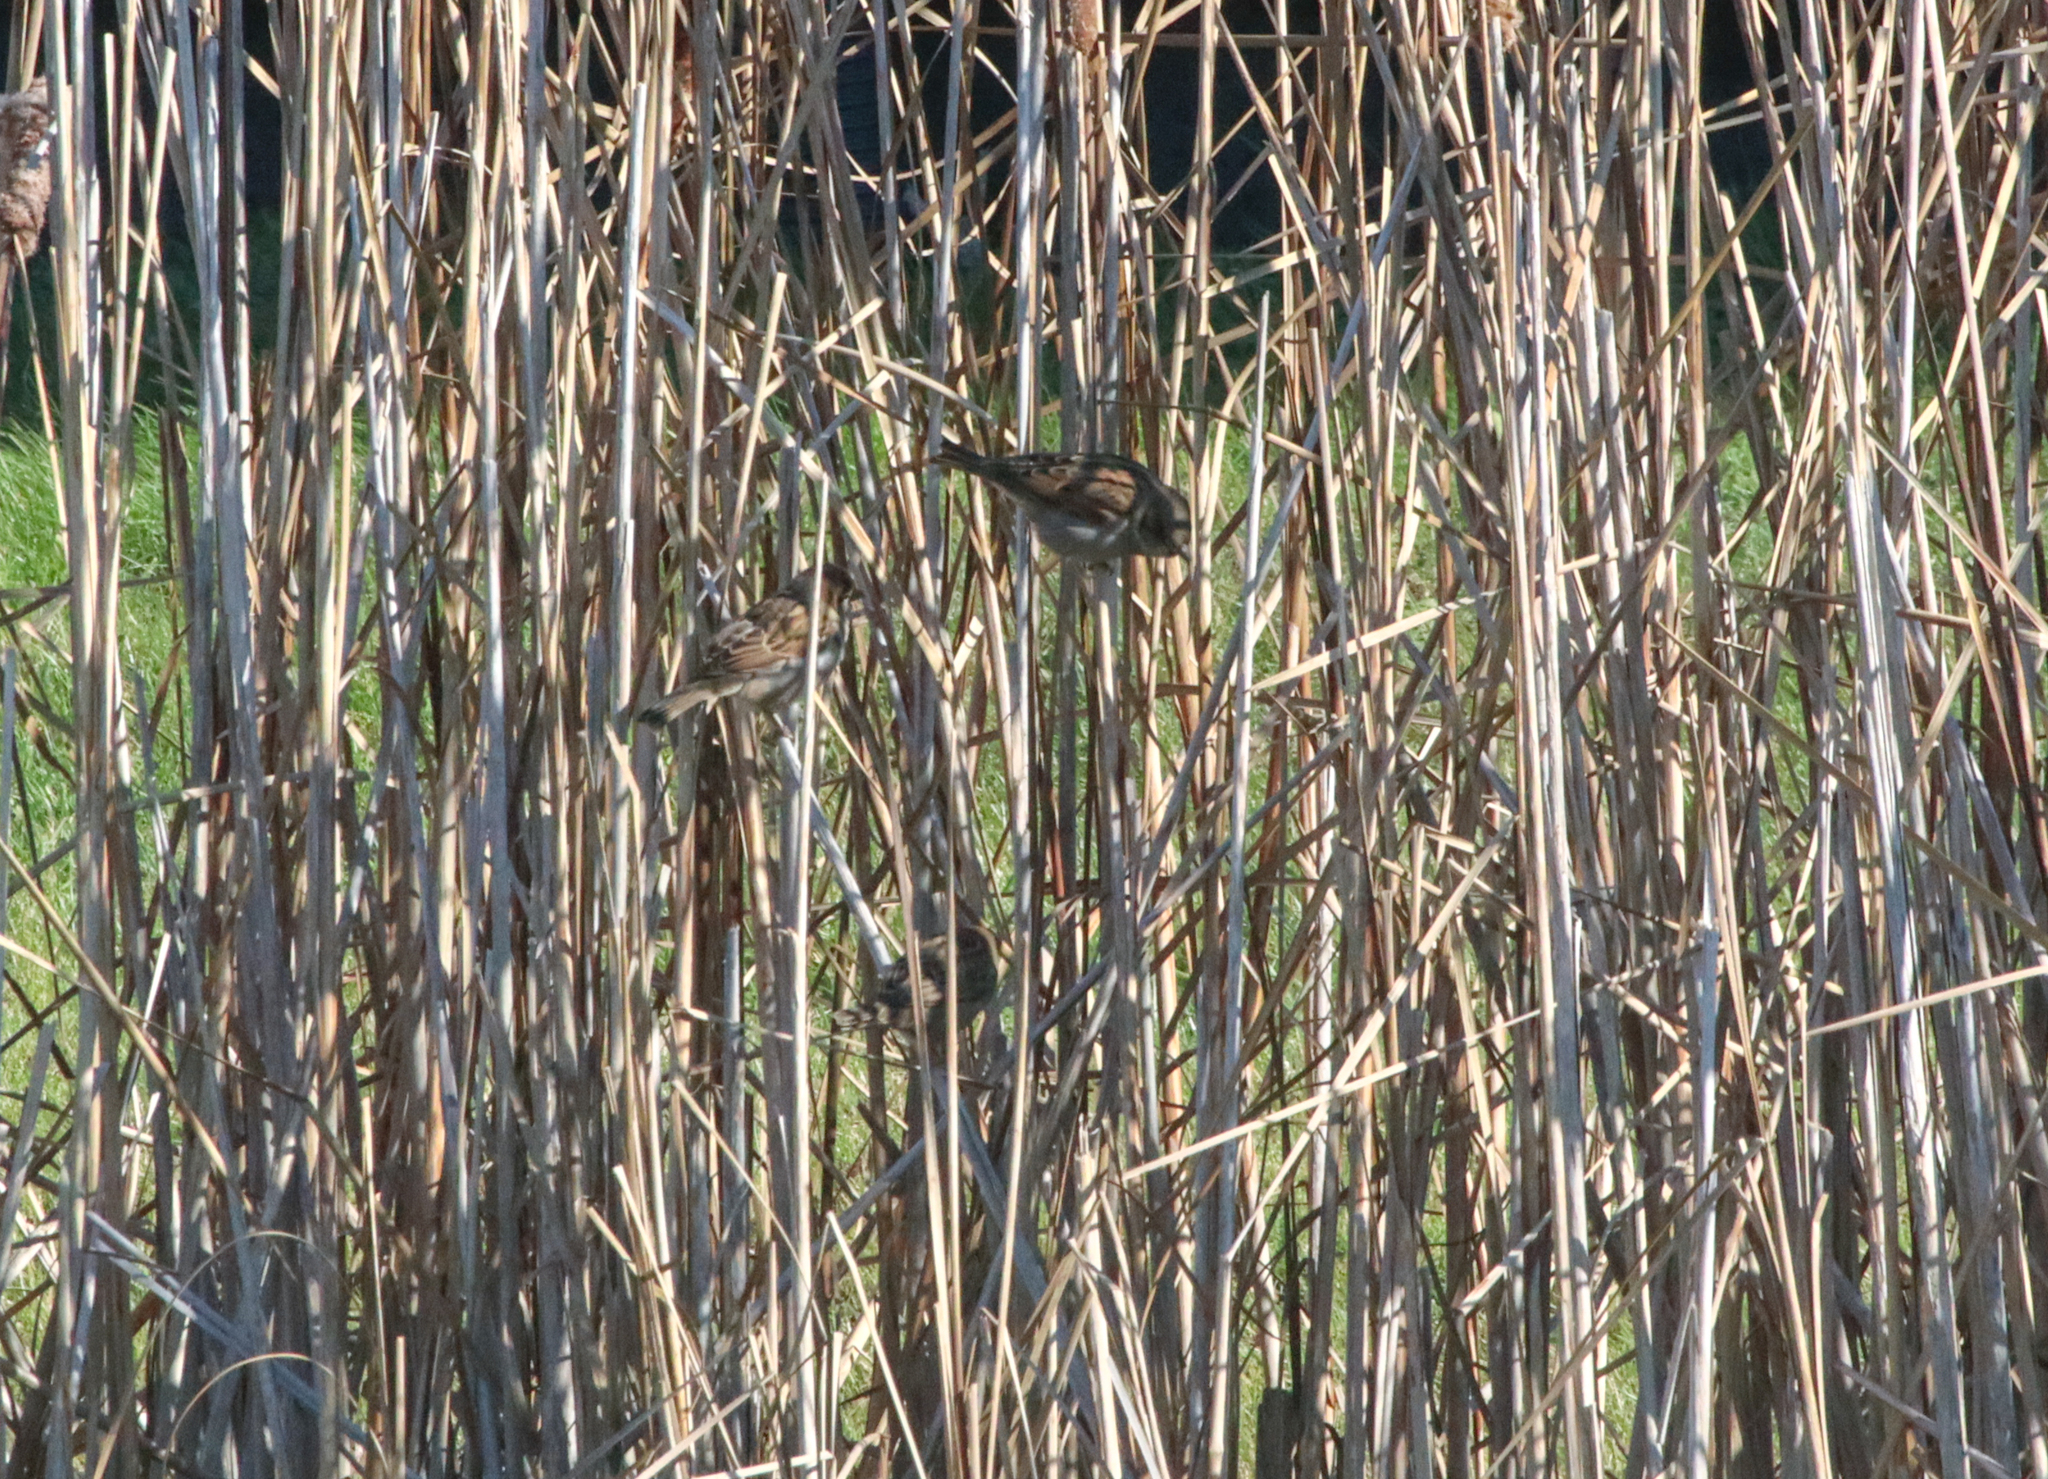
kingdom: Animalia
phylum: Chordata
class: Aves
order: Passeriformes
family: Passeridae
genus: Passer
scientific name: Passer domesticus
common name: House sparrow
